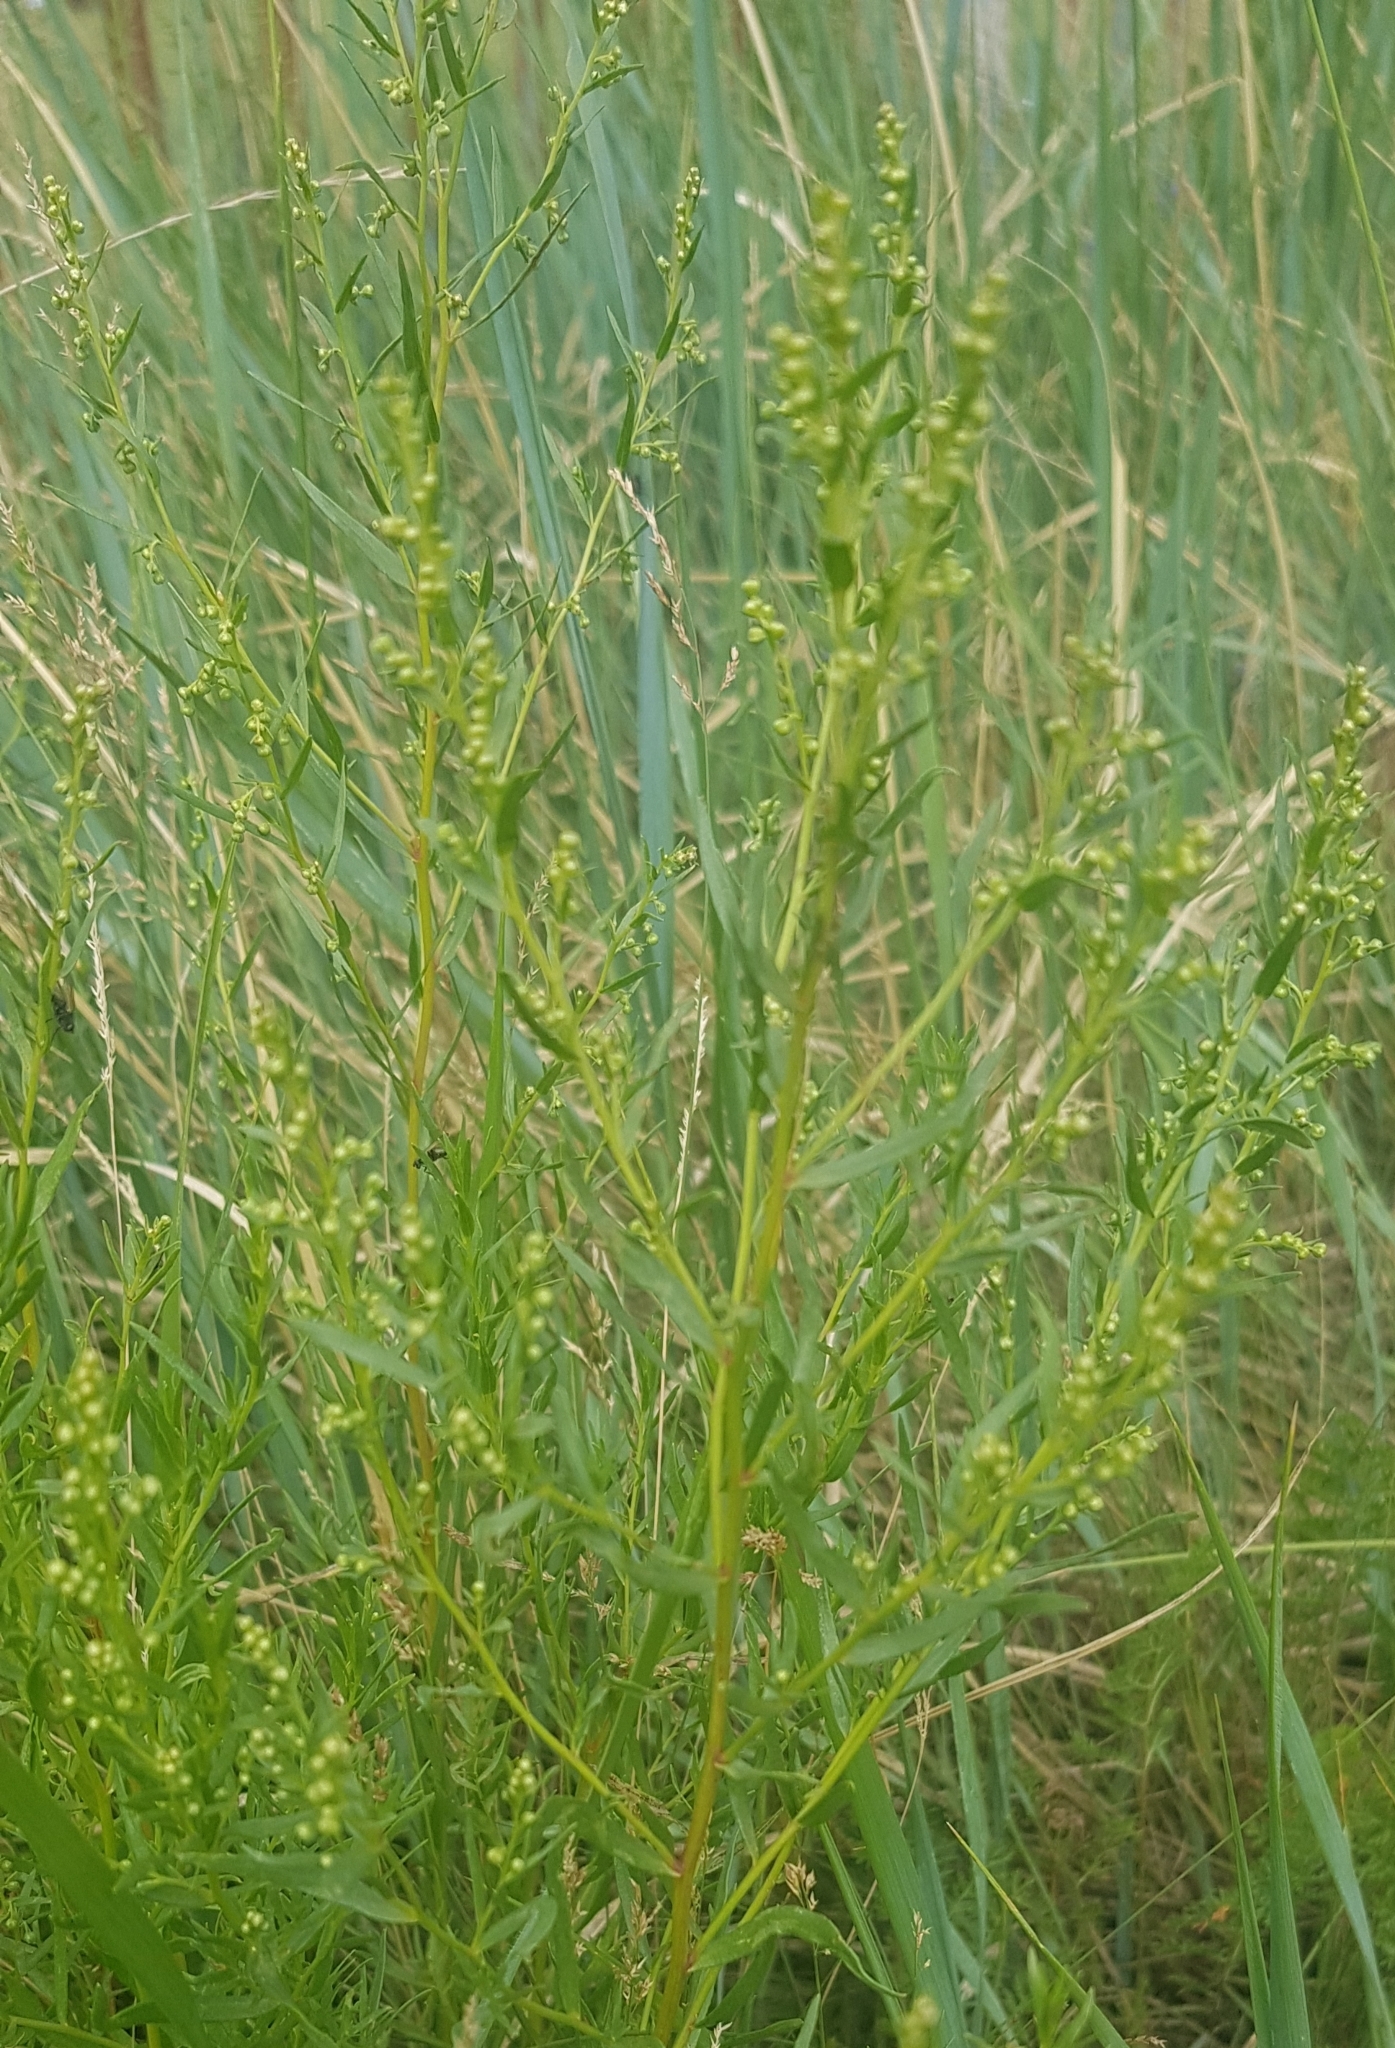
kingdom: Plantae
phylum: Tracheophyta
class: Magnoliopsida
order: Asterales
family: Asteraceae
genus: Artemisia
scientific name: Artemisia dracunculus
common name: Tarragon
